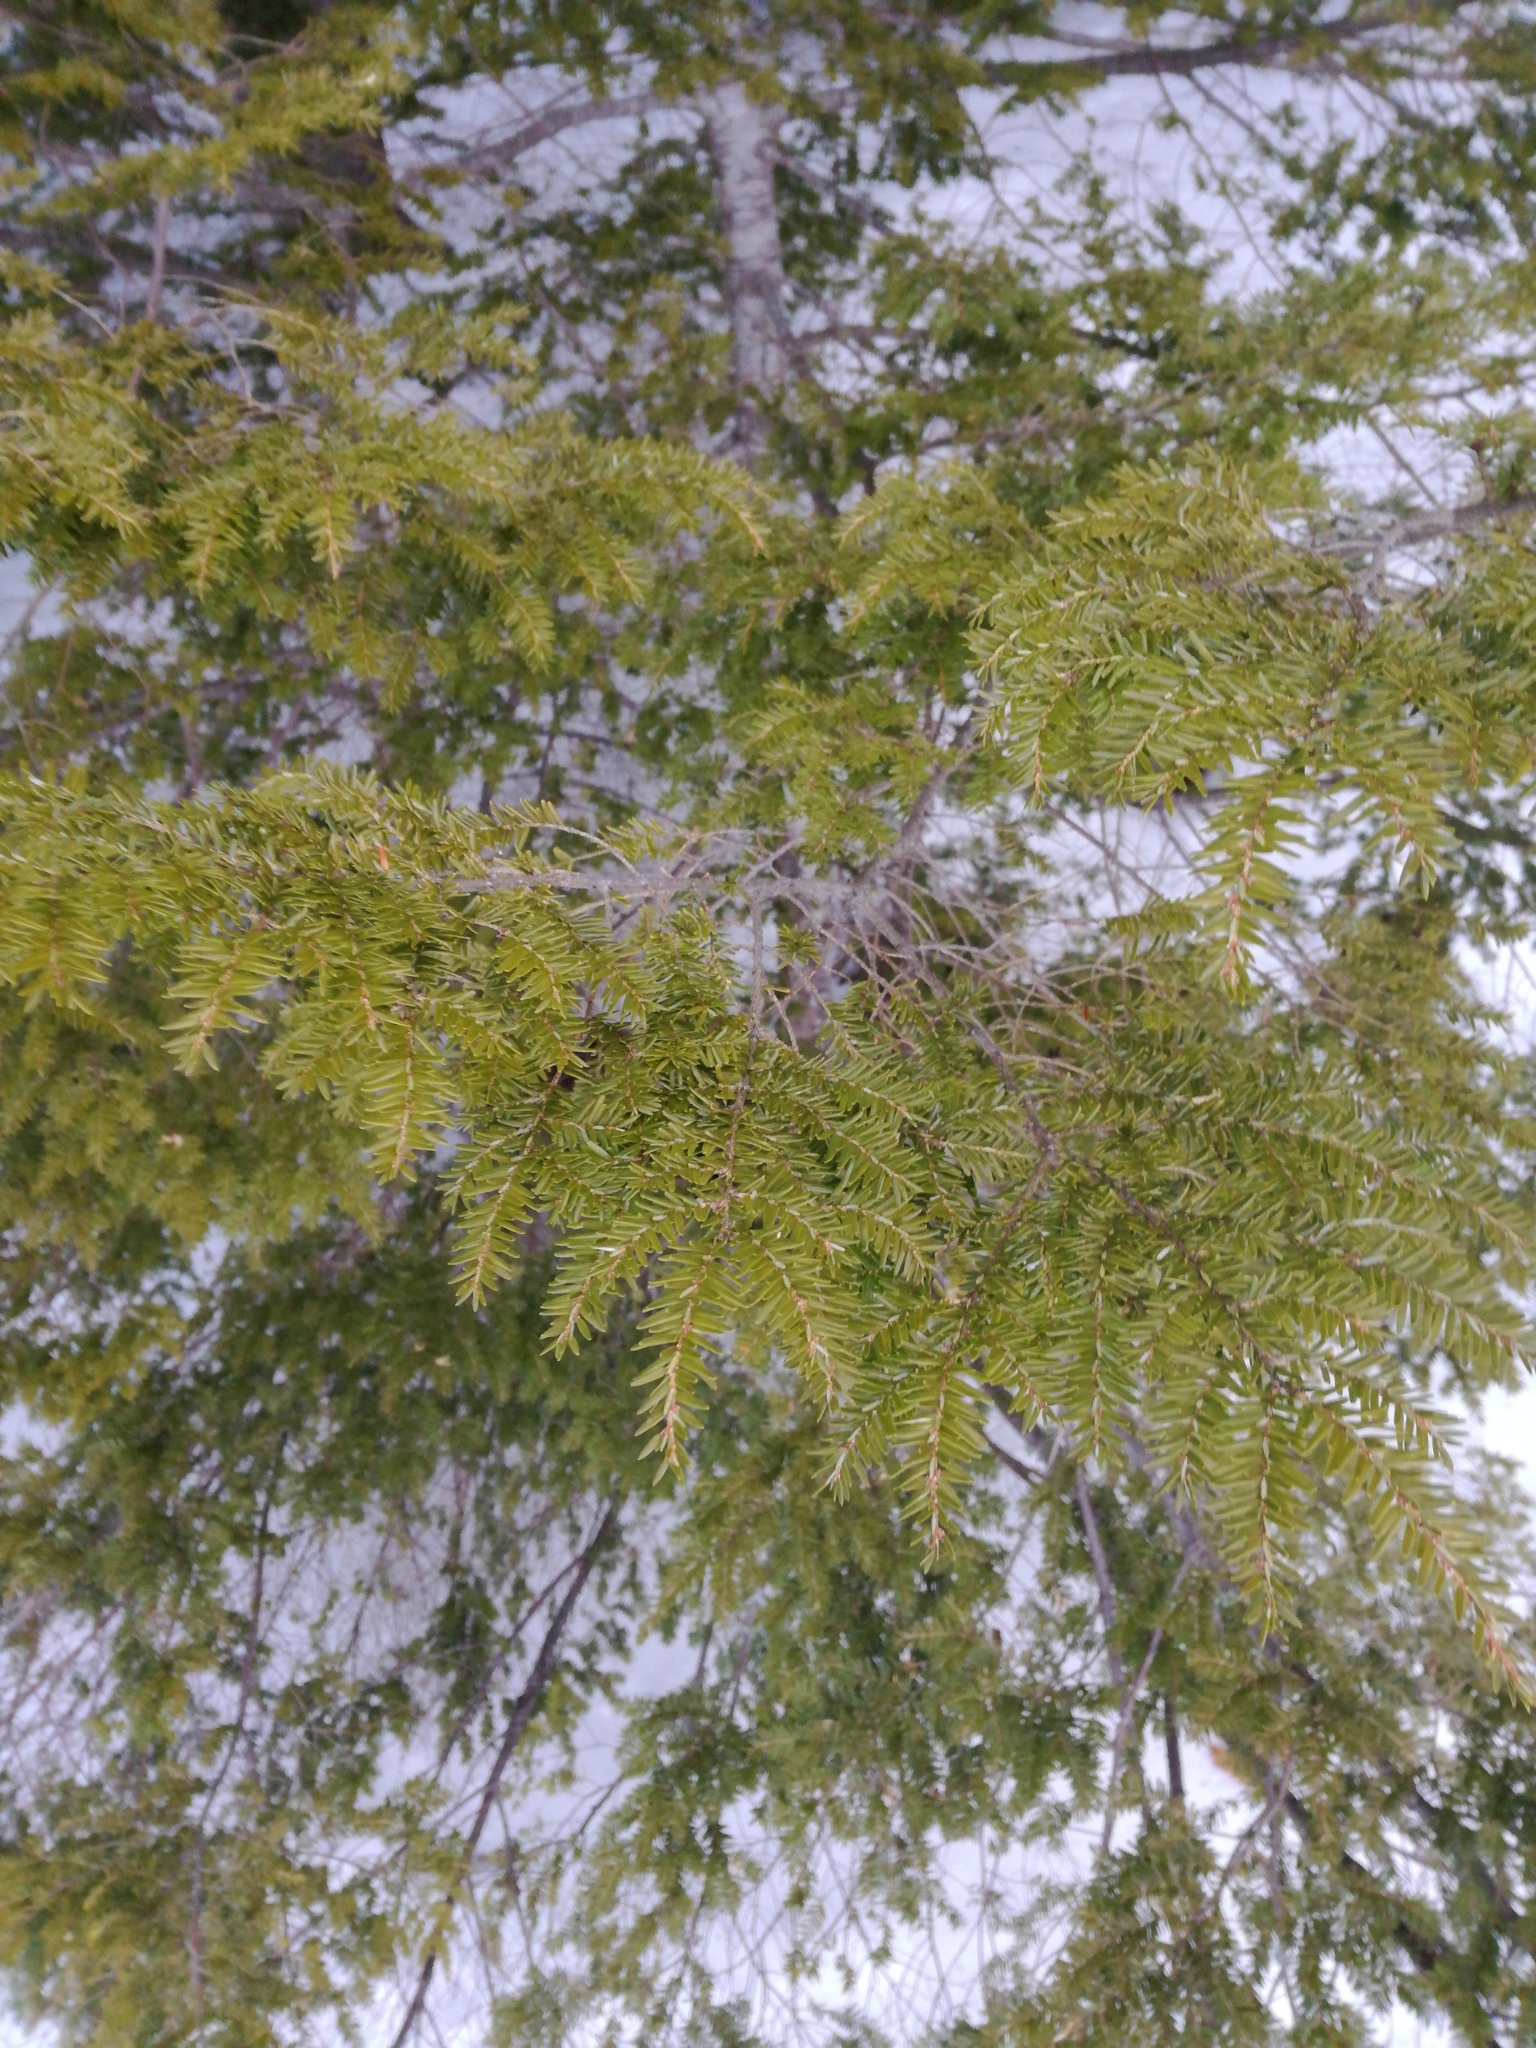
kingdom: Plantae
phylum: Tracheophyta
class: Pinopsida
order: Pinales
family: Pinaceae
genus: Tsuga
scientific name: Tsuga canadensis
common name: Eastern hemlock
